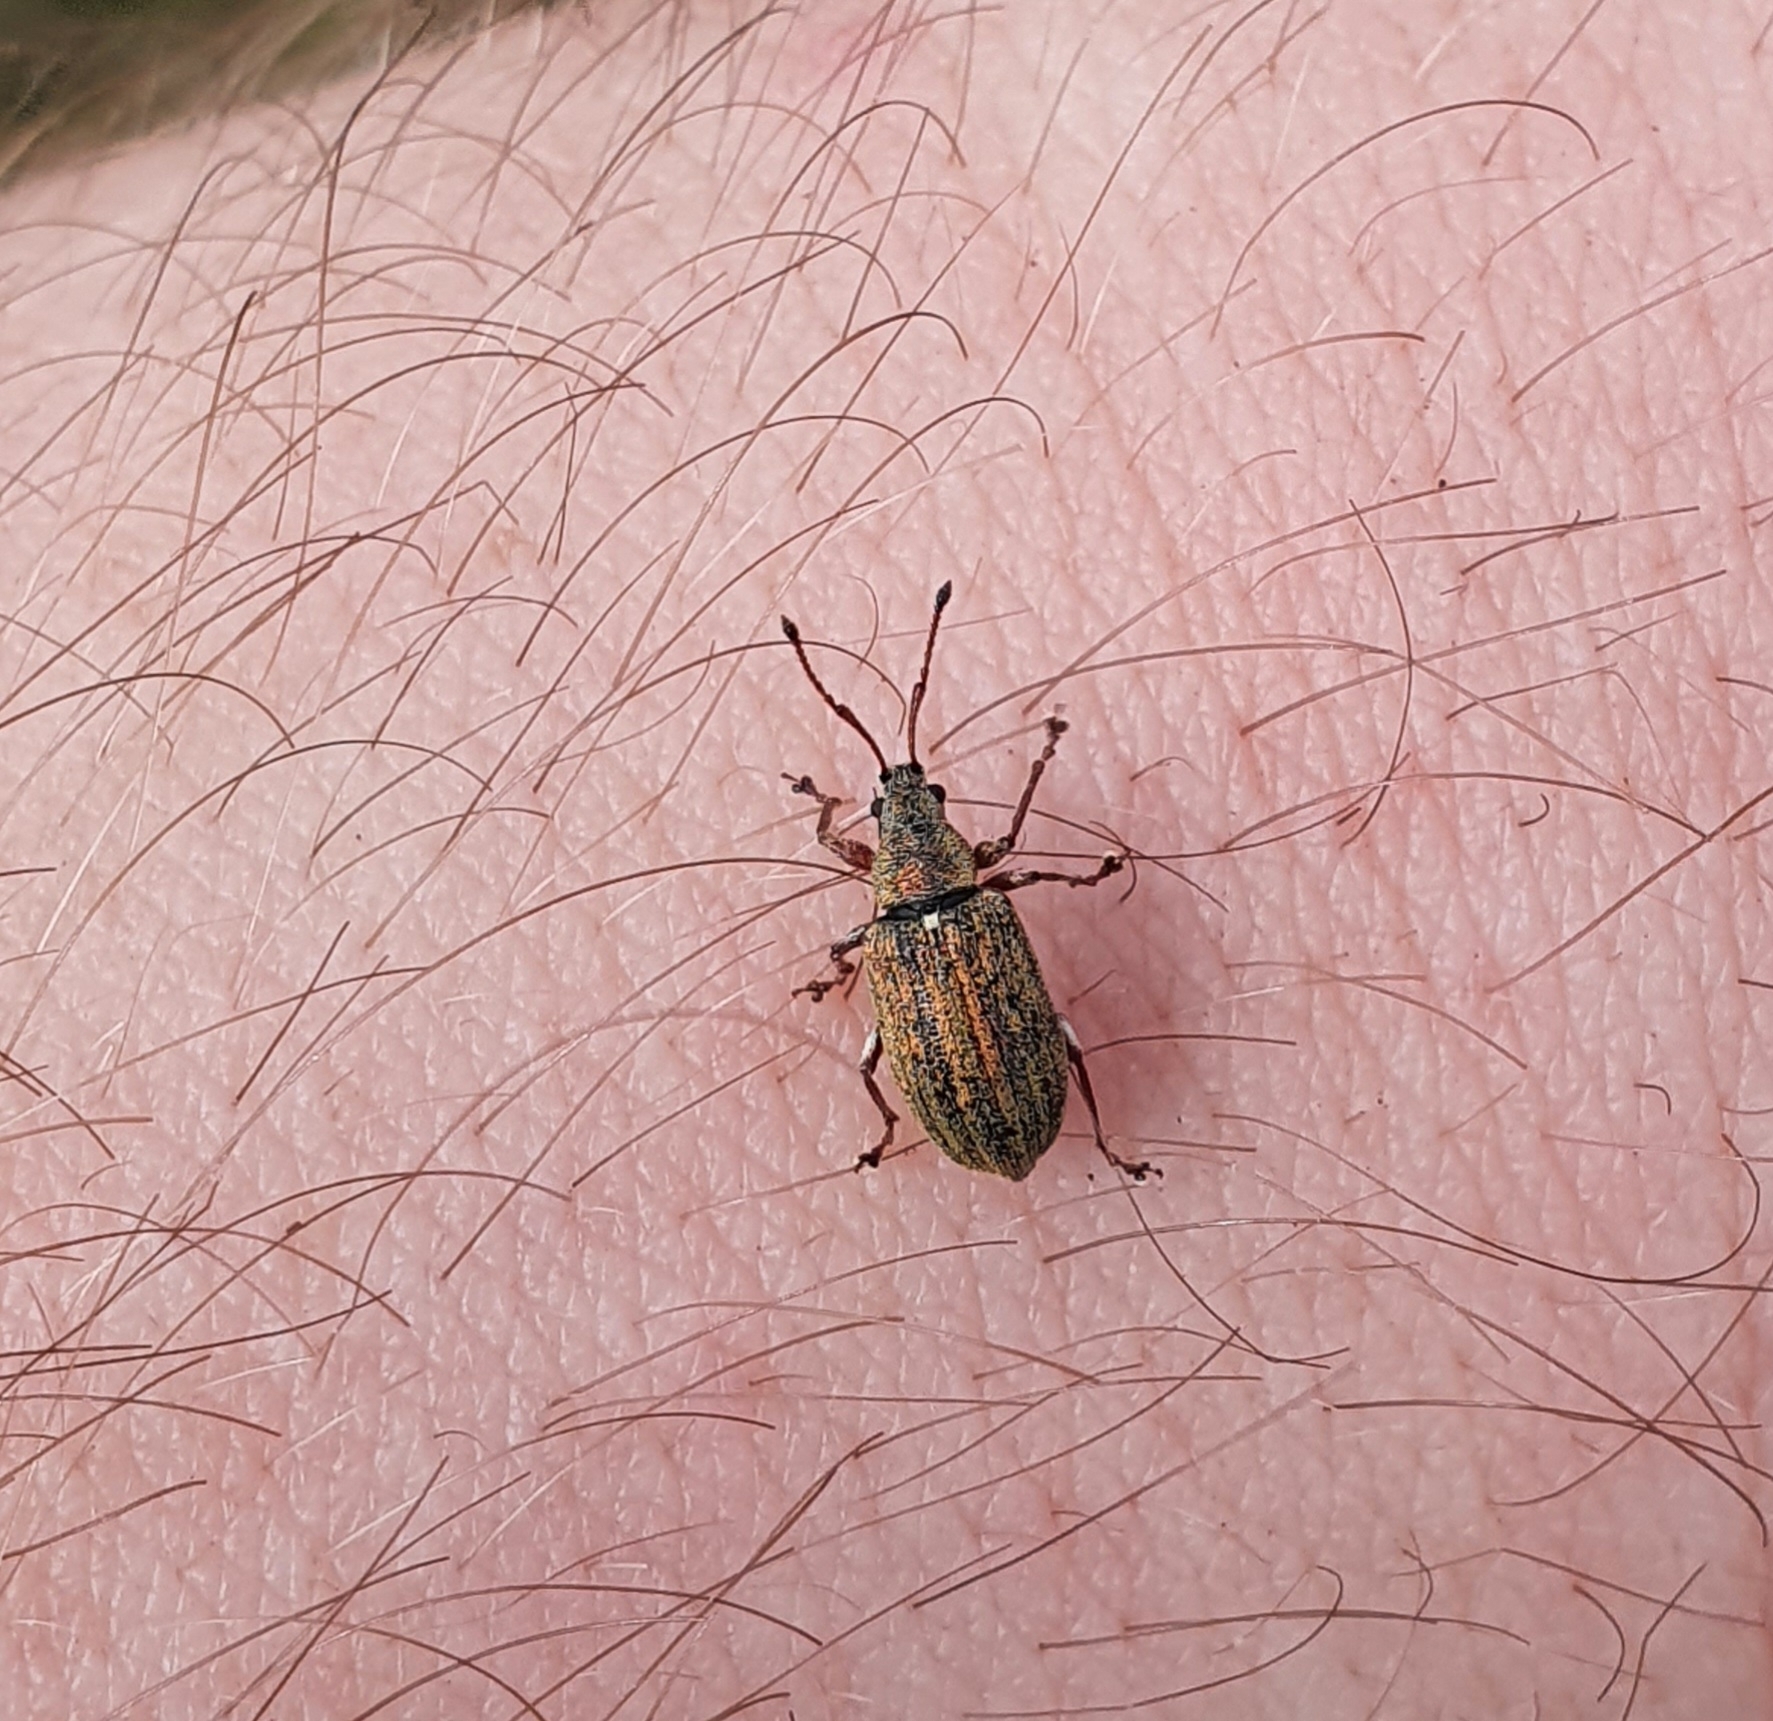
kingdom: Animalia
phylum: Arthropoda
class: Insecta
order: Coleoptera
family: Curculionidae
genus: Phyllobius
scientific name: Phyllobius pyri
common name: Common leaf weevil
